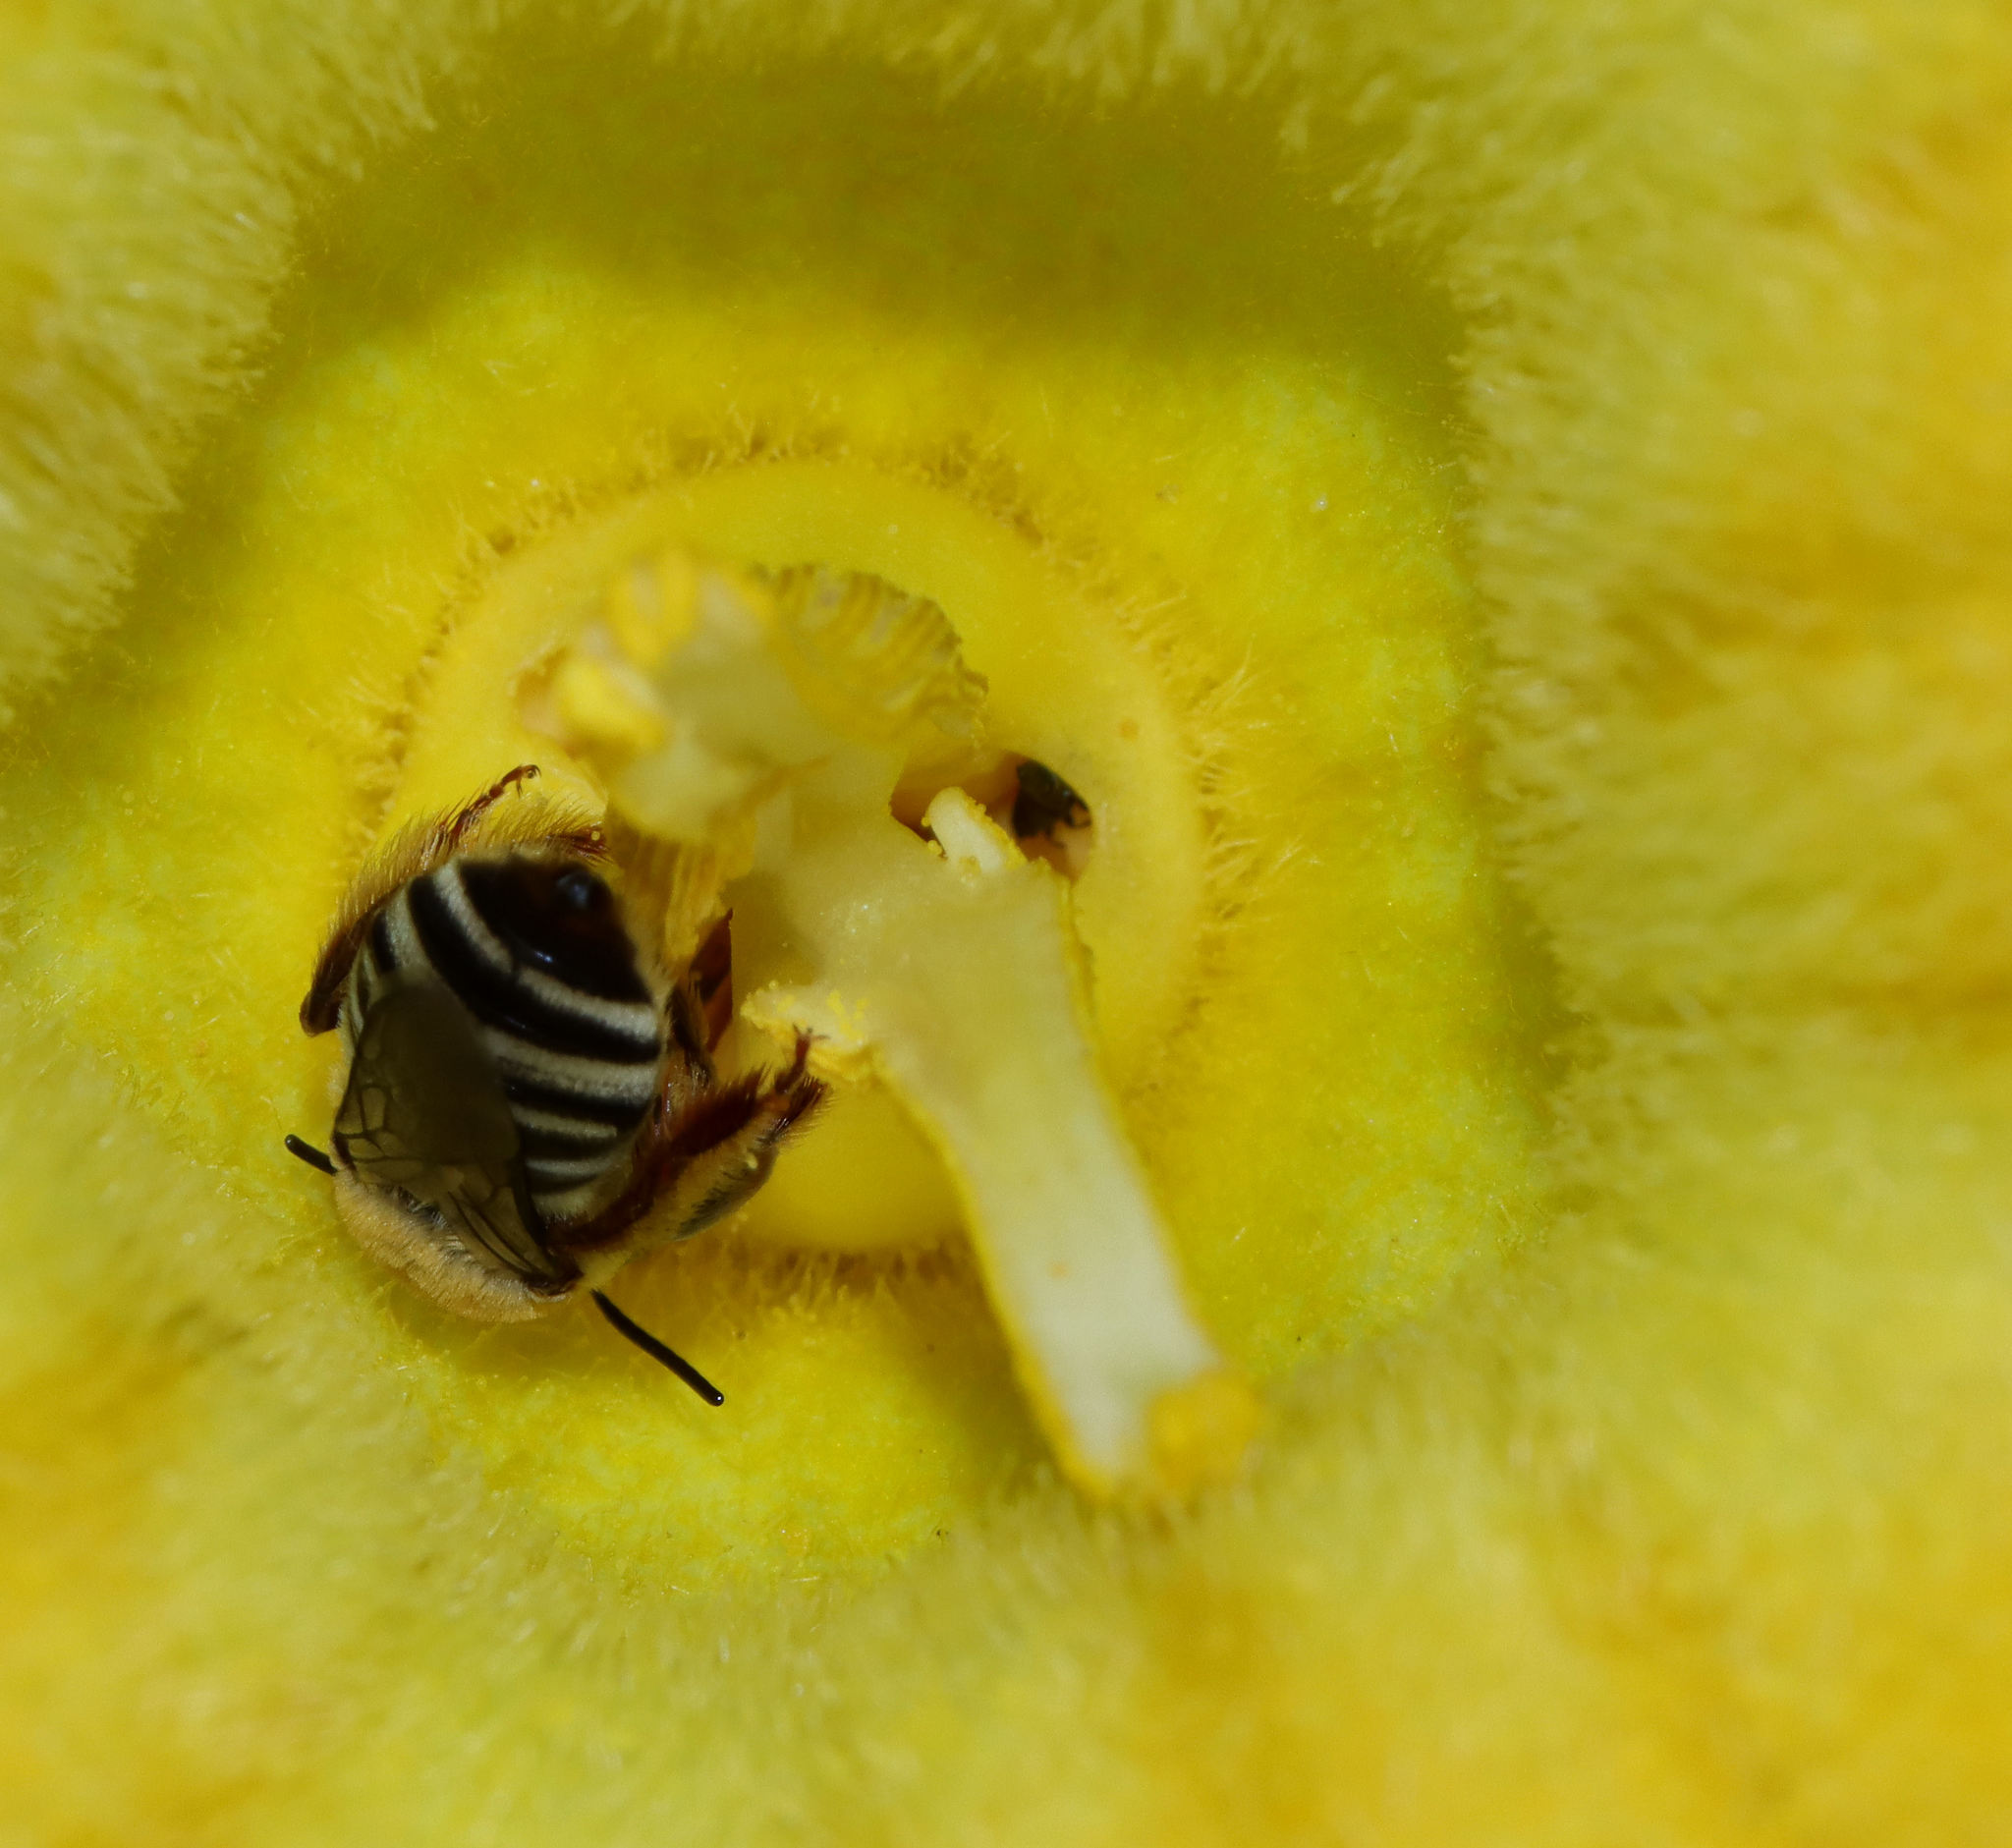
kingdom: Animalia
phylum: Arthropoda
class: Insecta
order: Hymenoptera
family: Apidae
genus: Peponapis
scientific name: Peponapis pruinosa
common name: Pruinose squash bee
